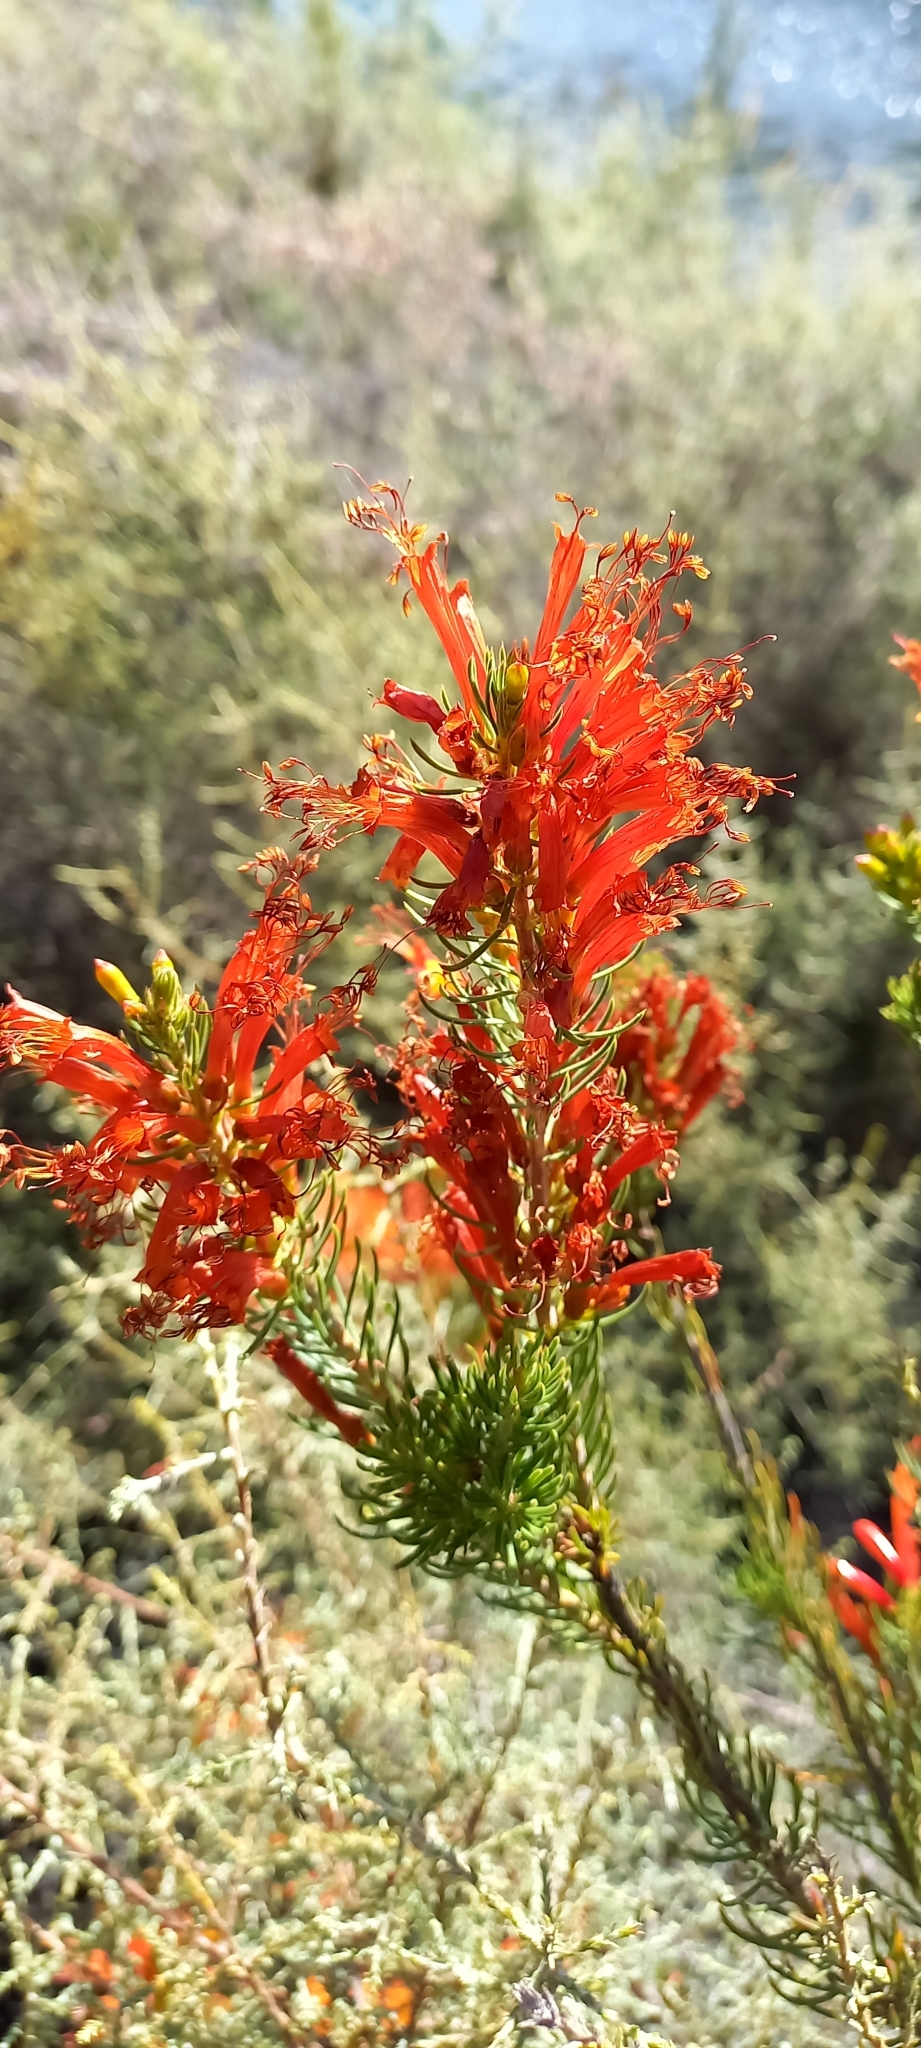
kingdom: Plantae
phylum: Tracheophyta
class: Magnoliopsida
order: Ericales
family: Ericaceae
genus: Erica
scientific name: Erica grandiflora
